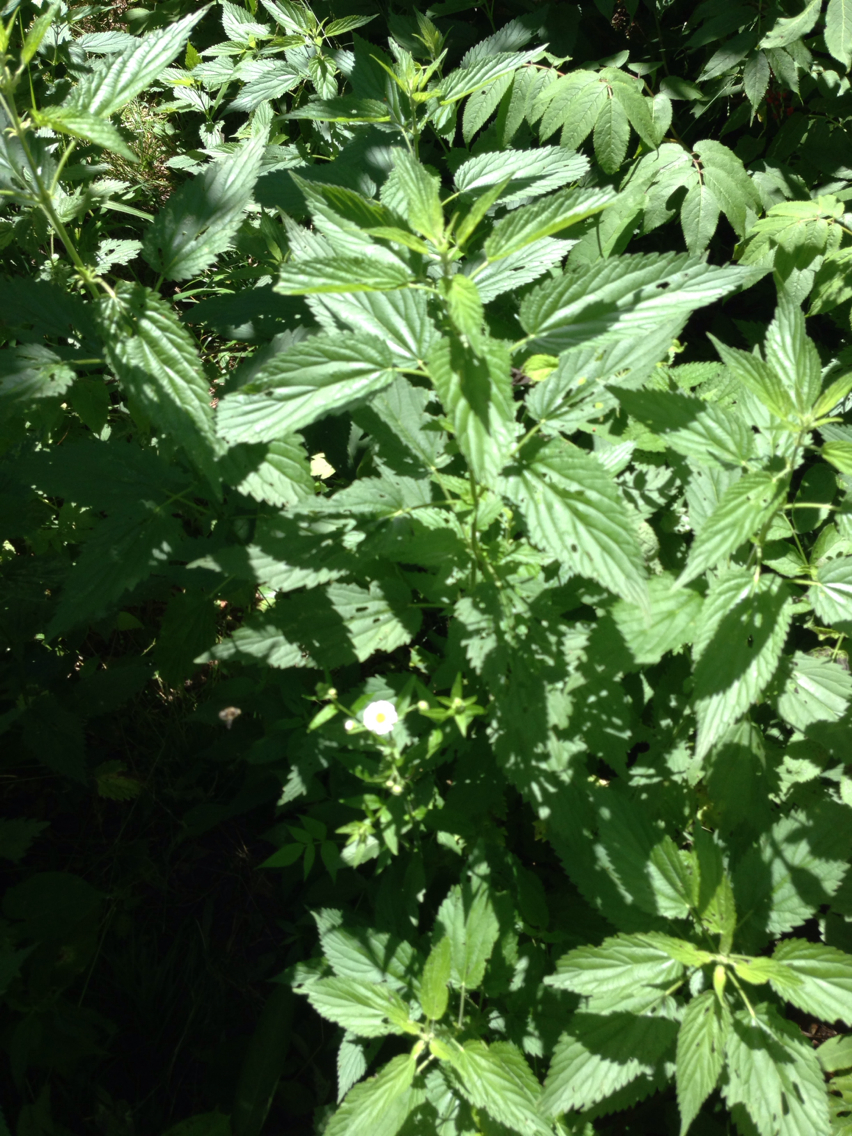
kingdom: Plantae
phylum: Tracheophyta
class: Magnoliopsida
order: Rosales
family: Urticaceae
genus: Urtica
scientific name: Urtica dioica
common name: Common nettle
